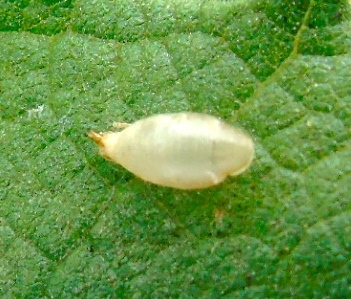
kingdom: Animalia
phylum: Arthropoda
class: Insecta
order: Diptera
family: Syrphidae
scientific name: Syrphidae
